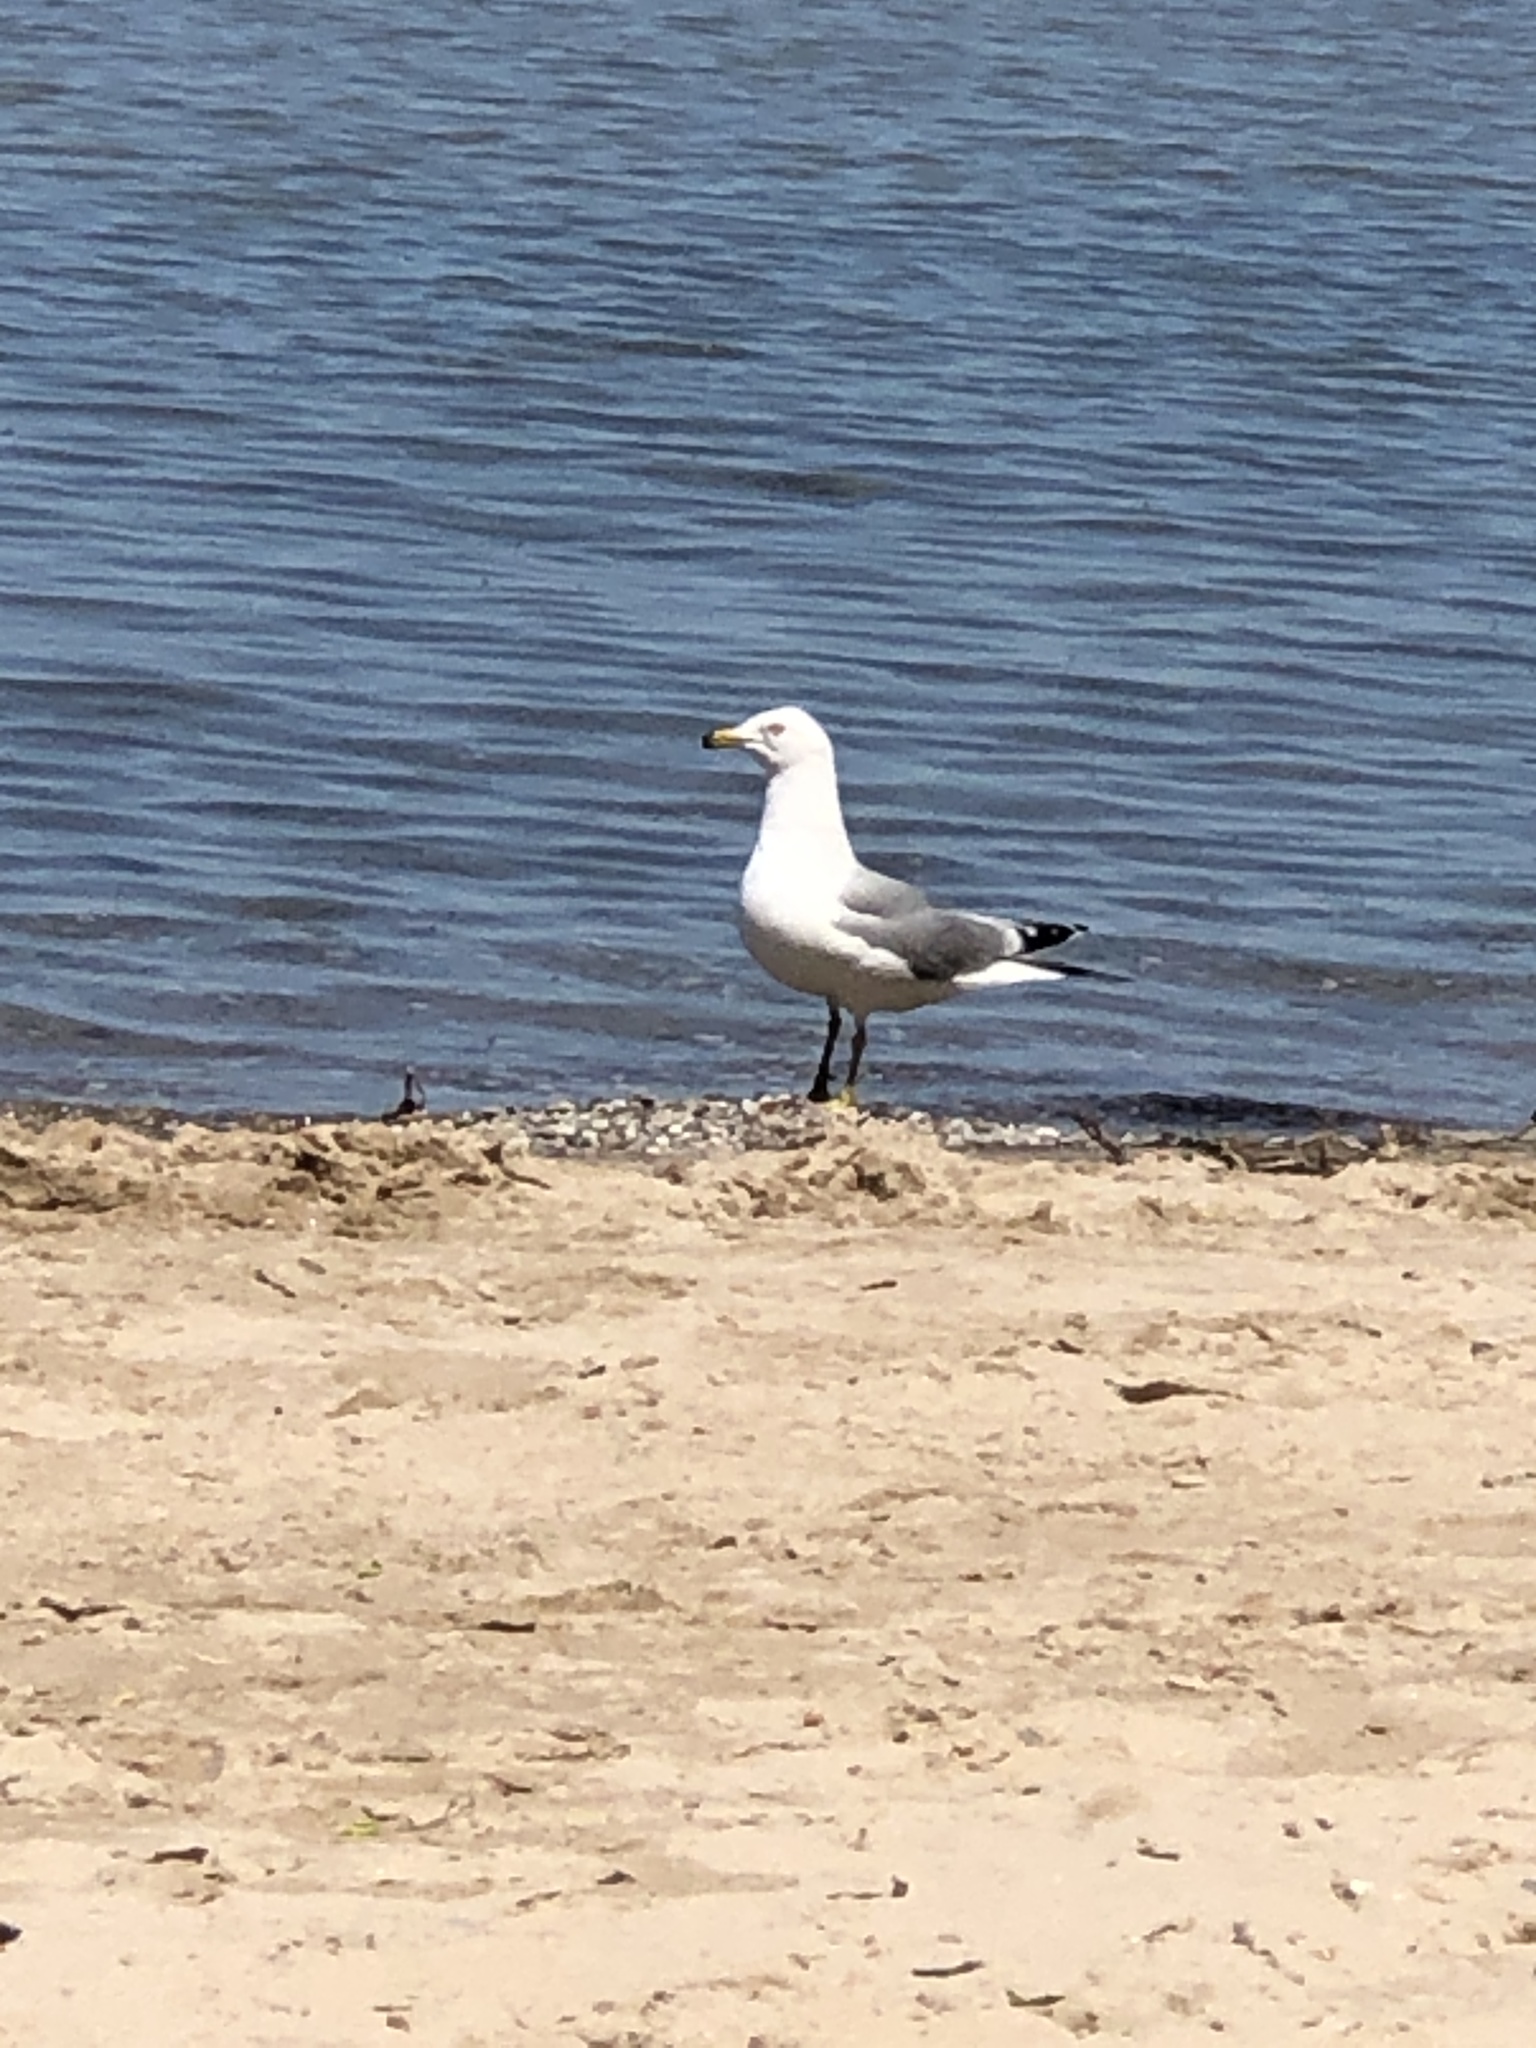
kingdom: Animalia
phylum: Chordata
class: Aves
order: Charadriiformes
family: Laridae
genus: Larus
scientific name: Larus delawarensis
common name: Ring-billed gull
